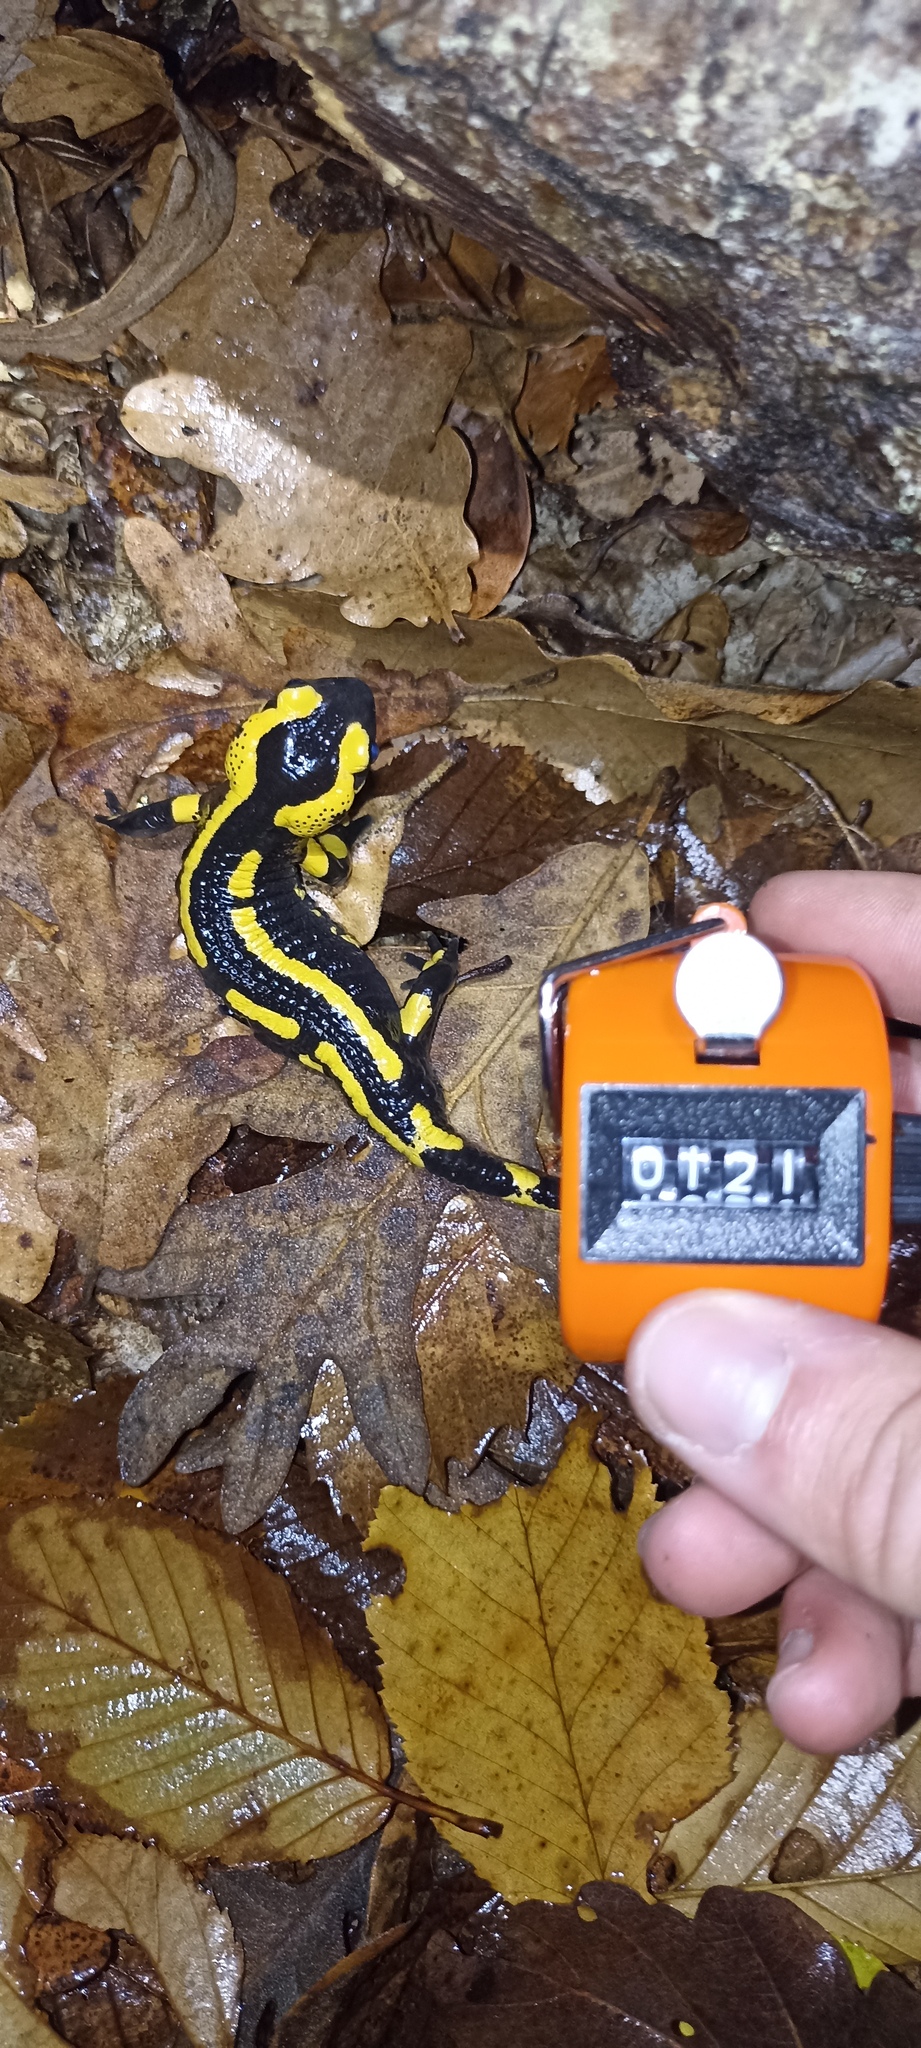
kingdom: Animalia
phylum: Chordata
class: Amphibia
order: Caudata
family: Salamandridae
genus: Salamandra
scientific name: Salamandra salamandra
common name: Fire salamander
